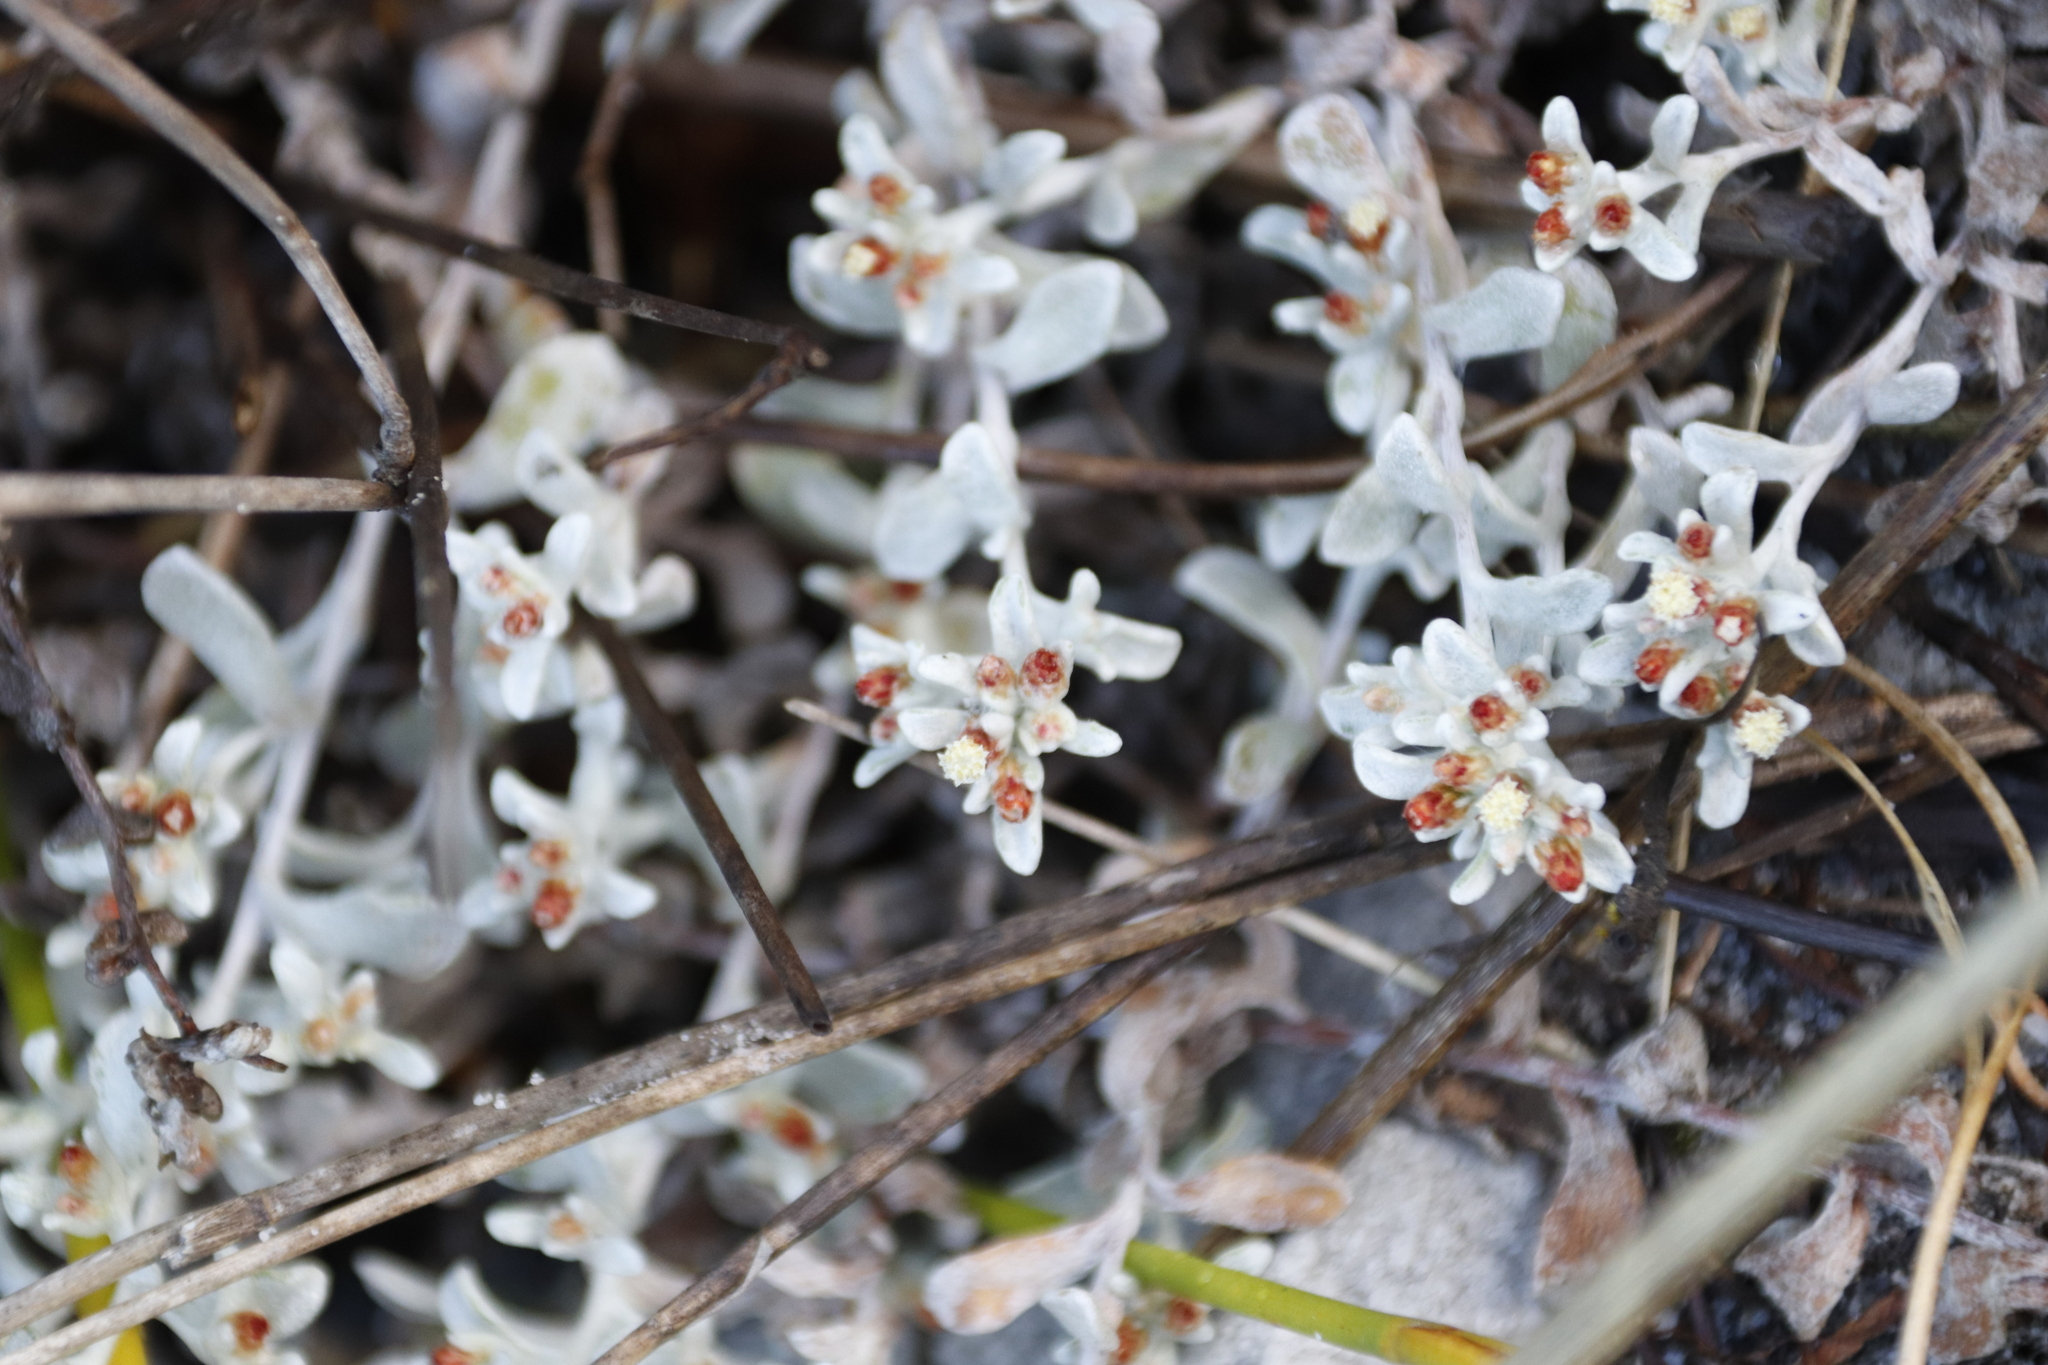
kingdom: Plantae
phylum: Tracheophyta
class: Magnoliopsida
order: Asterales
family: Asteraceae
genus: Helichrysum
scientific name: Helichrysum tinctum
